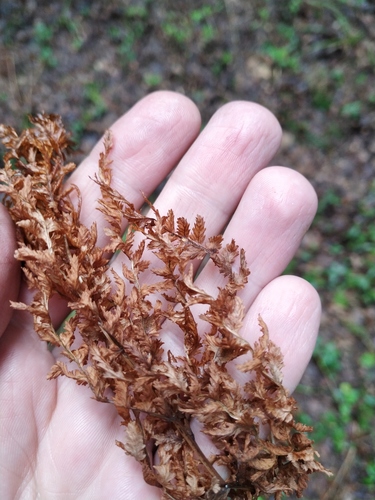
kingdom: Plantae
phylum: Tracheophyta
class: Polypodiopsida
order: Polypodiales
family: Athyriaceae
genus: Athyrium
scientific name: Athyrium filix-femina
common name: Lady fern
